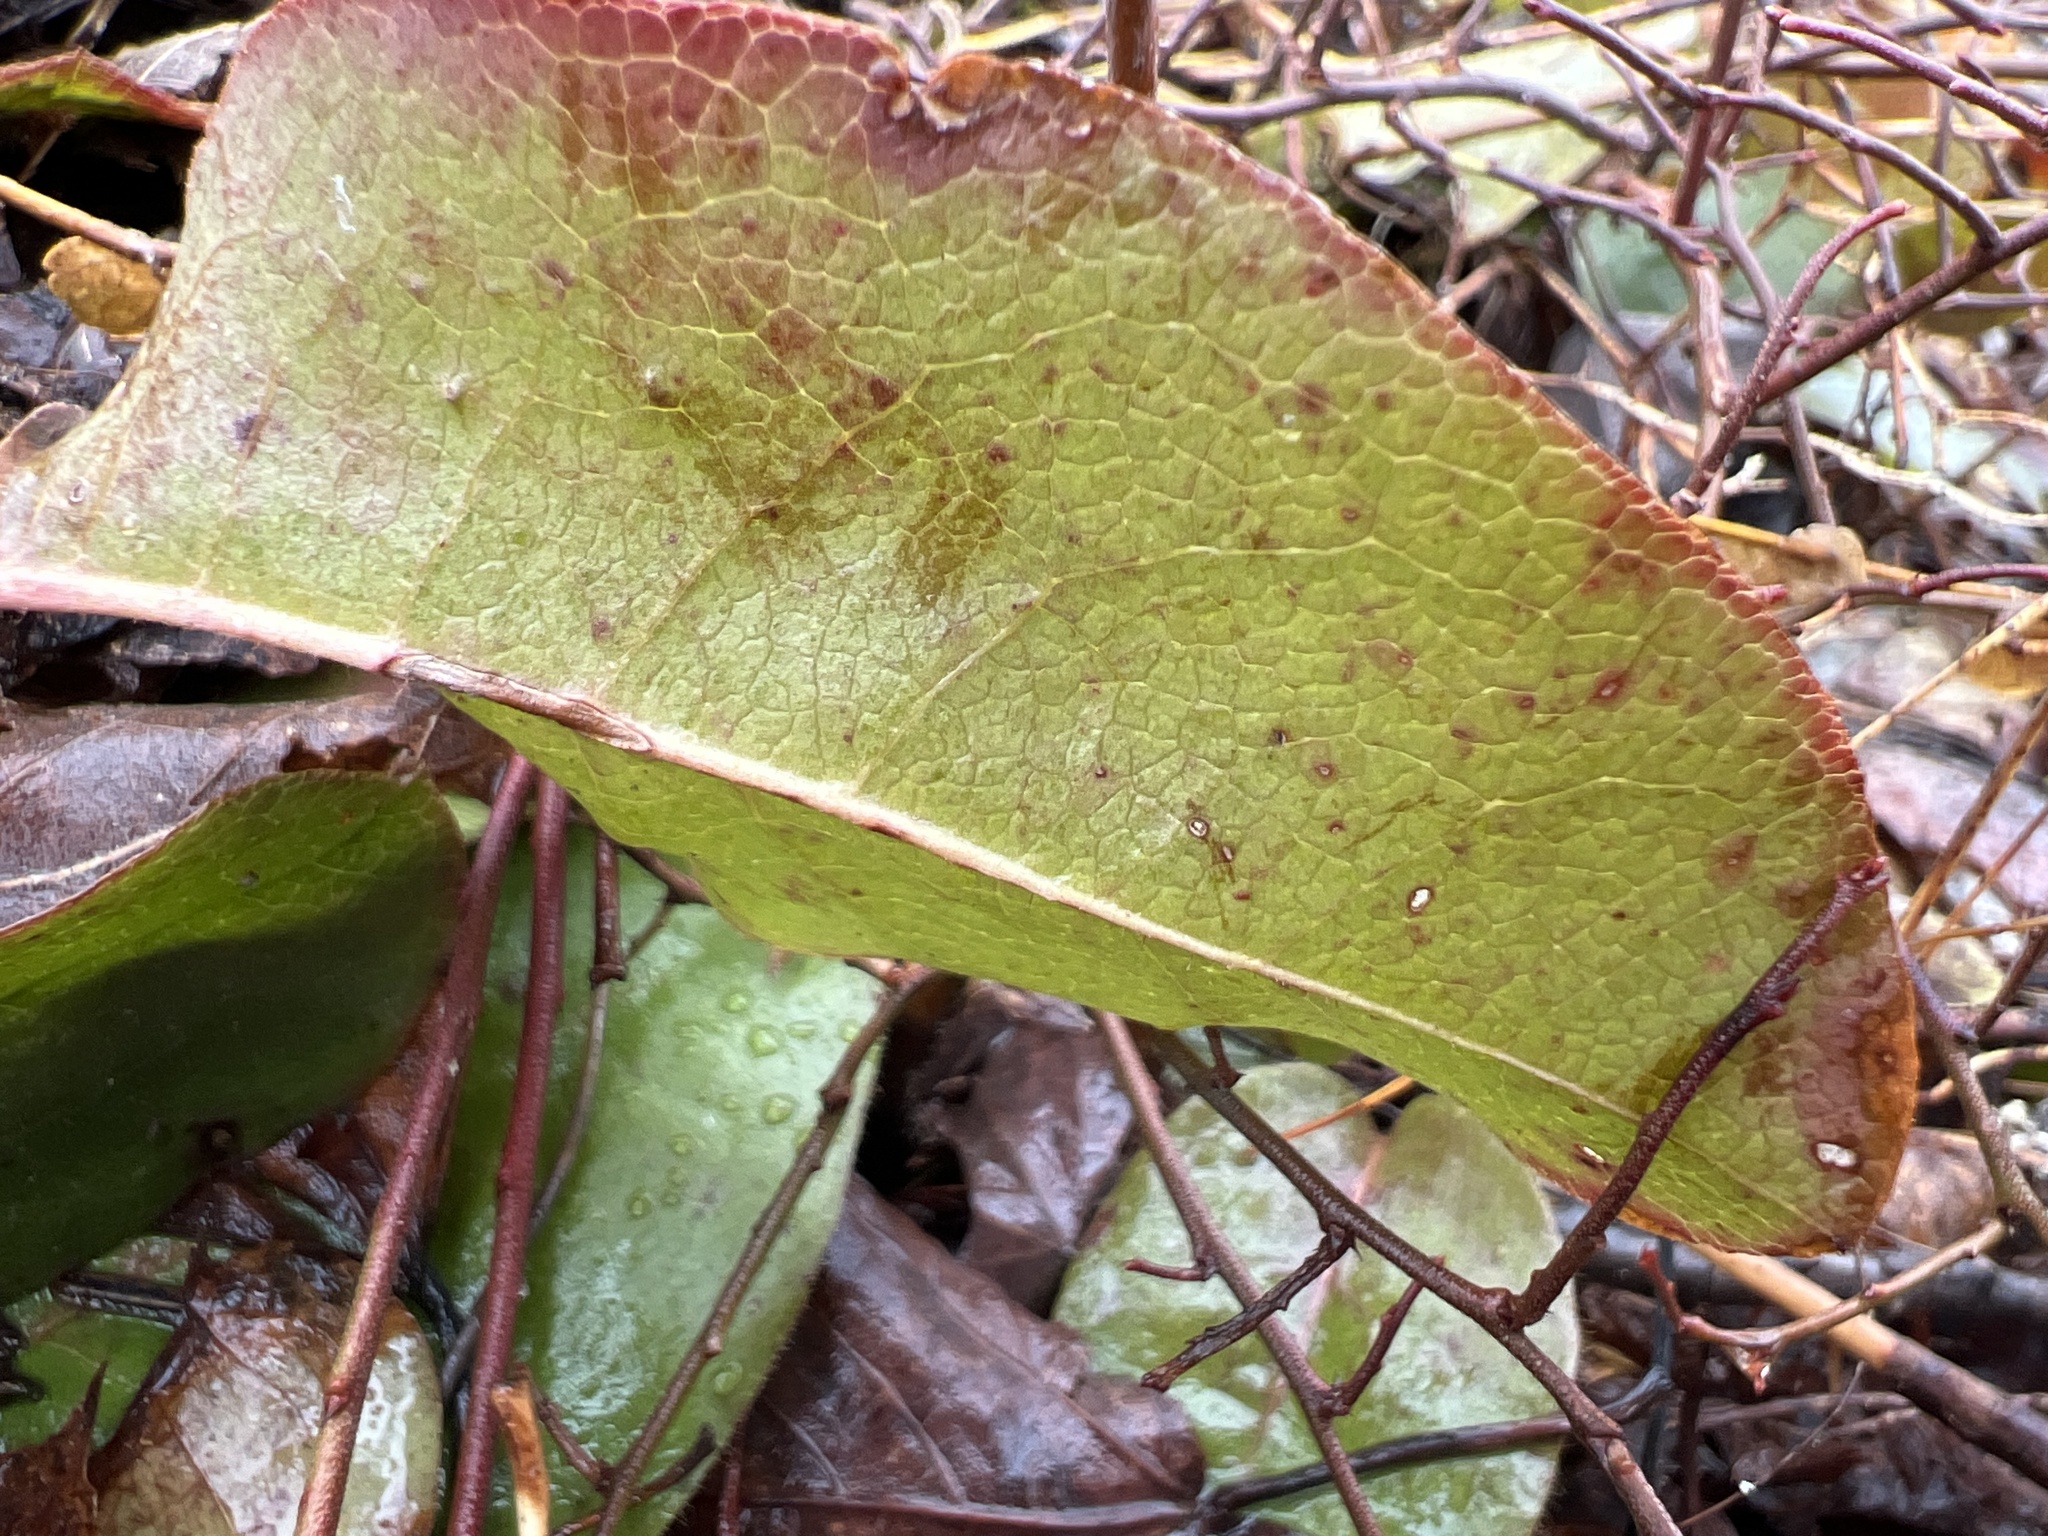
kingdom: Plantae
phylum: Tracheophyta
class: Magnoliopsida
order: Ericales
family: Ericaceae
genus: Epigaea
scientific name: Epigaea repens
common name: Gravelroot
